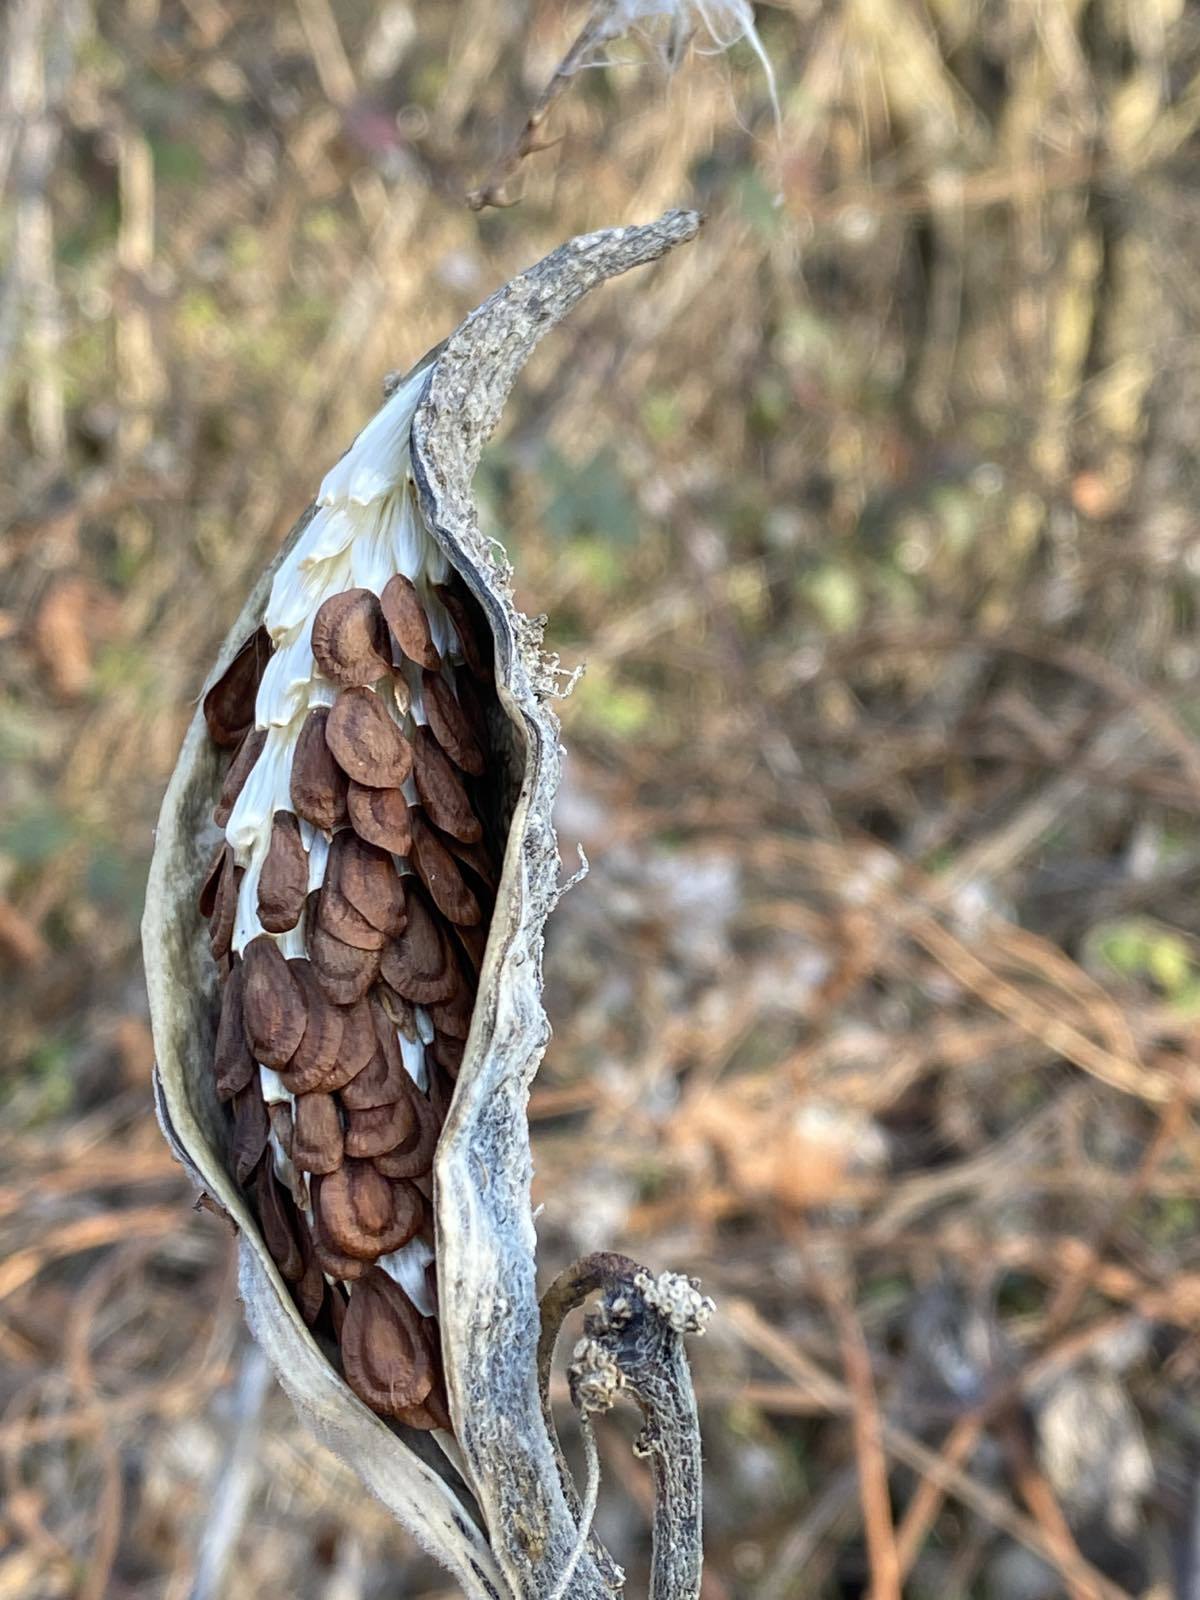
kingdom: Plantae
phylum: Tracheophyta
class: Magnoliopsida
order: Gentianales
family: Apocynaceae
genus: Asclepias
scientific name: Asclepias syriaca
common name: Common milkweed
